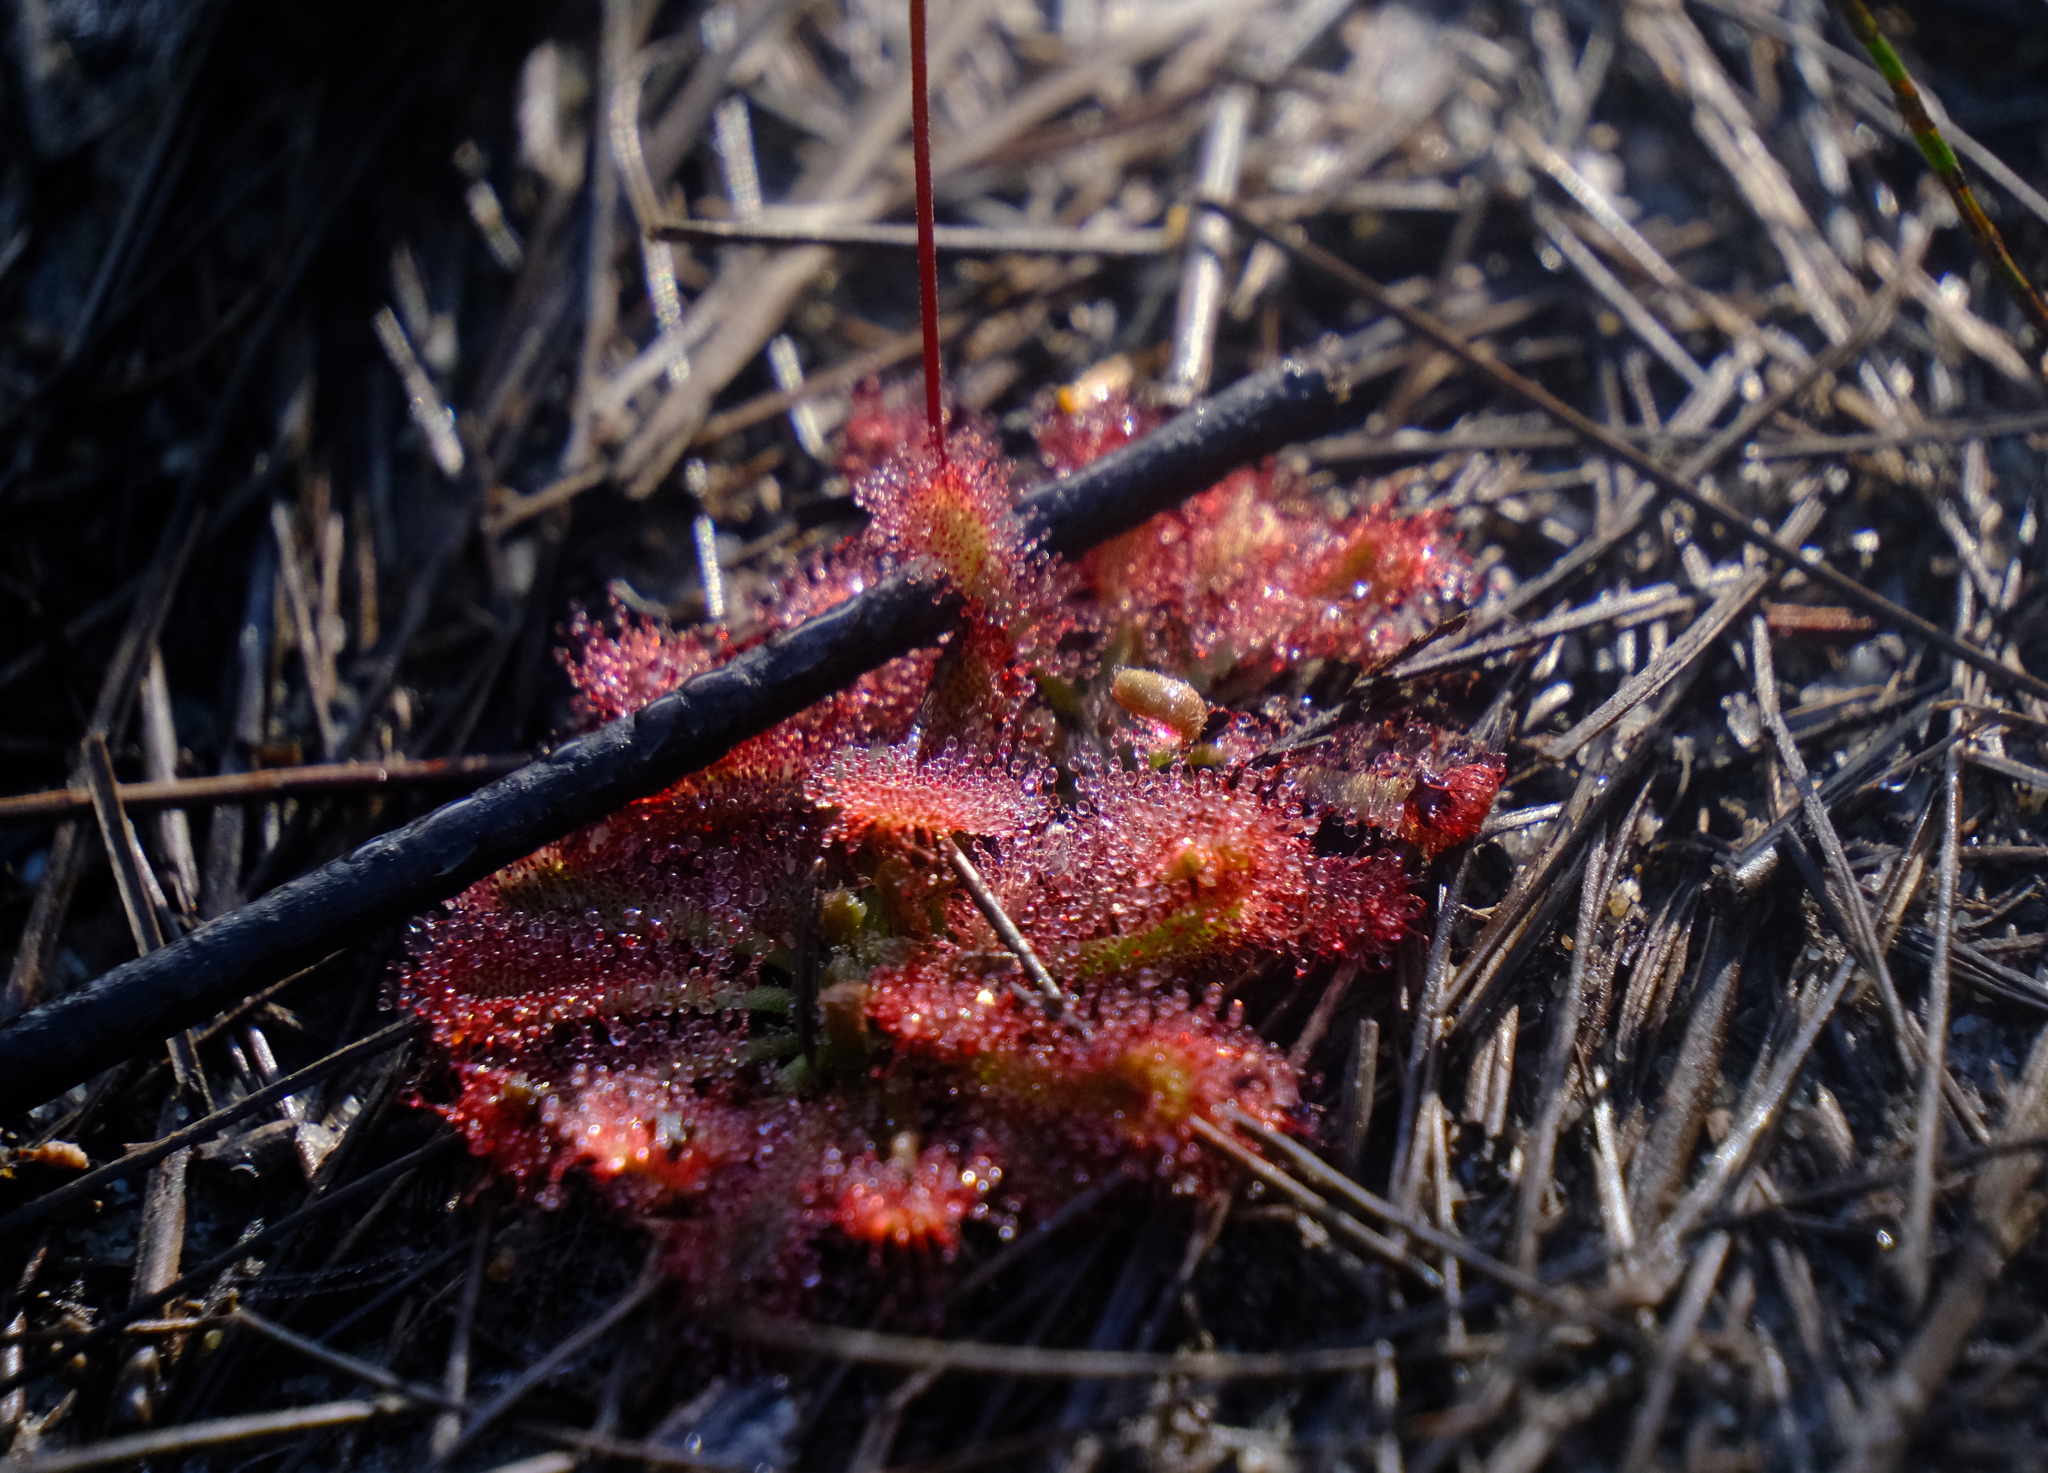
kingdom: Plantae
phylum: Tracheophyta
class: Magnoliopsida
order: Caryophyllales
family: Droseraceae
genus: Drosera
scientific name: Drosera spatulata
